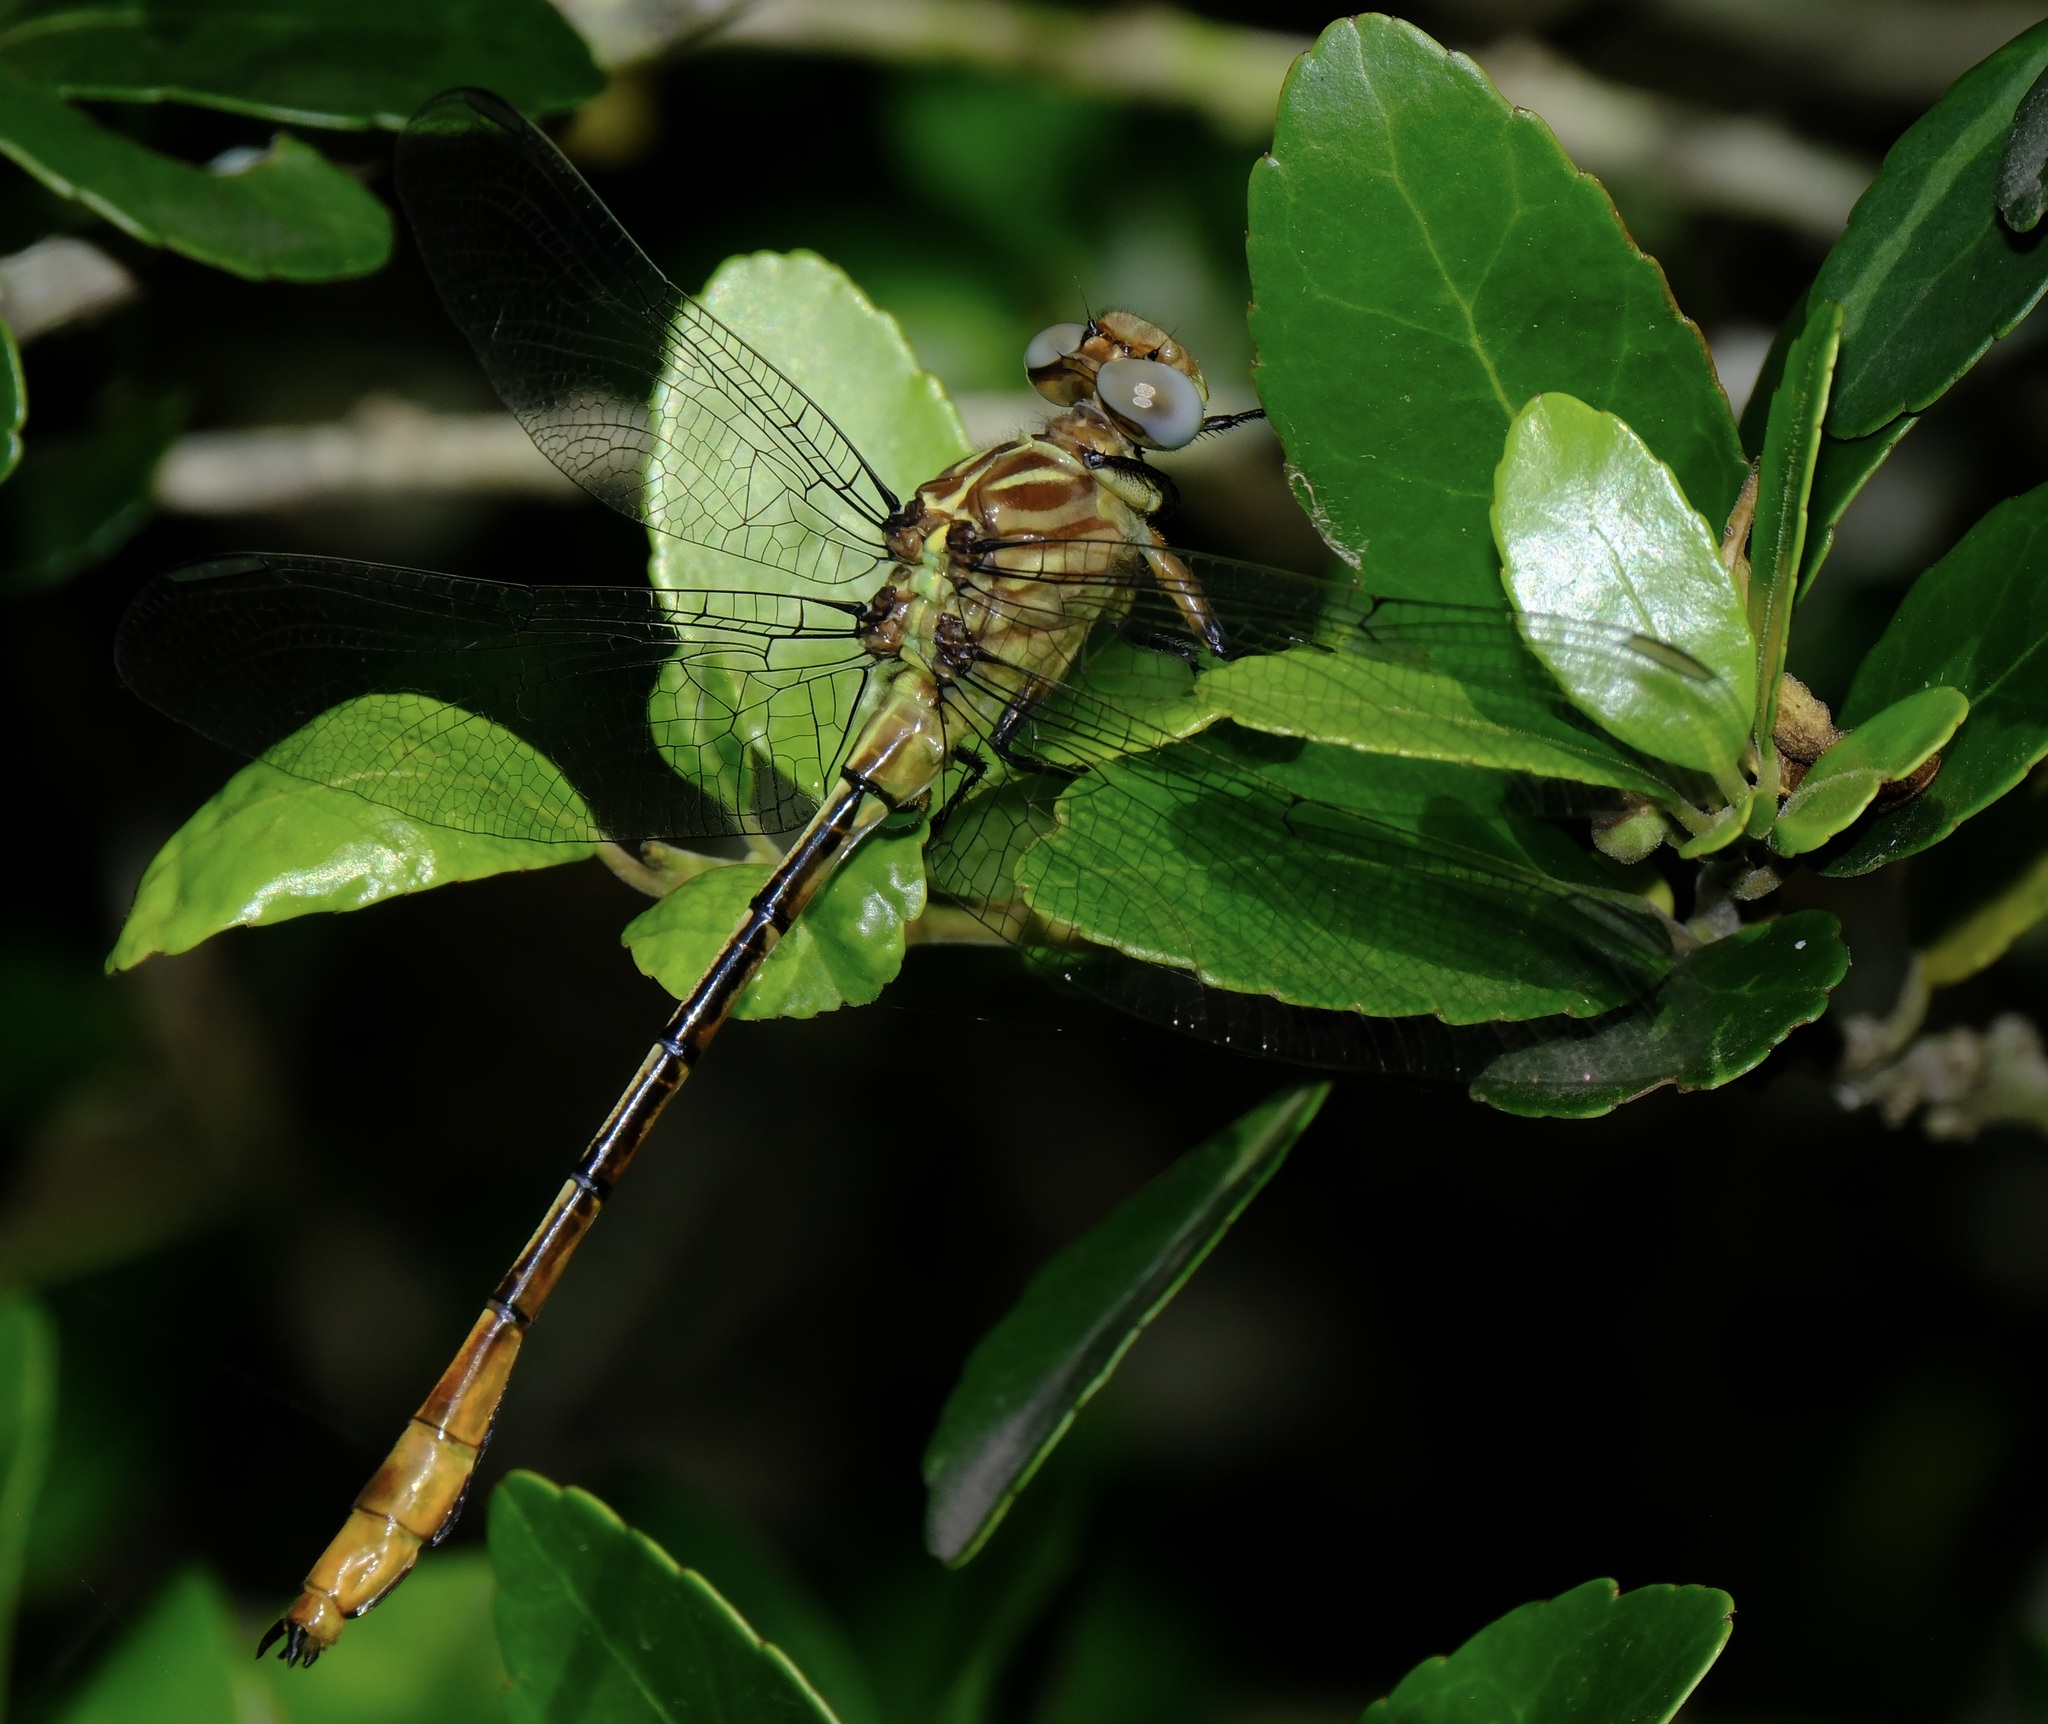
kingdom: Animalia
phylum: Arthropoda
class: Insecta
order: Odonata
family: Gomphidae
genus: Stylurus
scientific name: Stylurus plagiatus
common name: Russet-tipped clubtail
